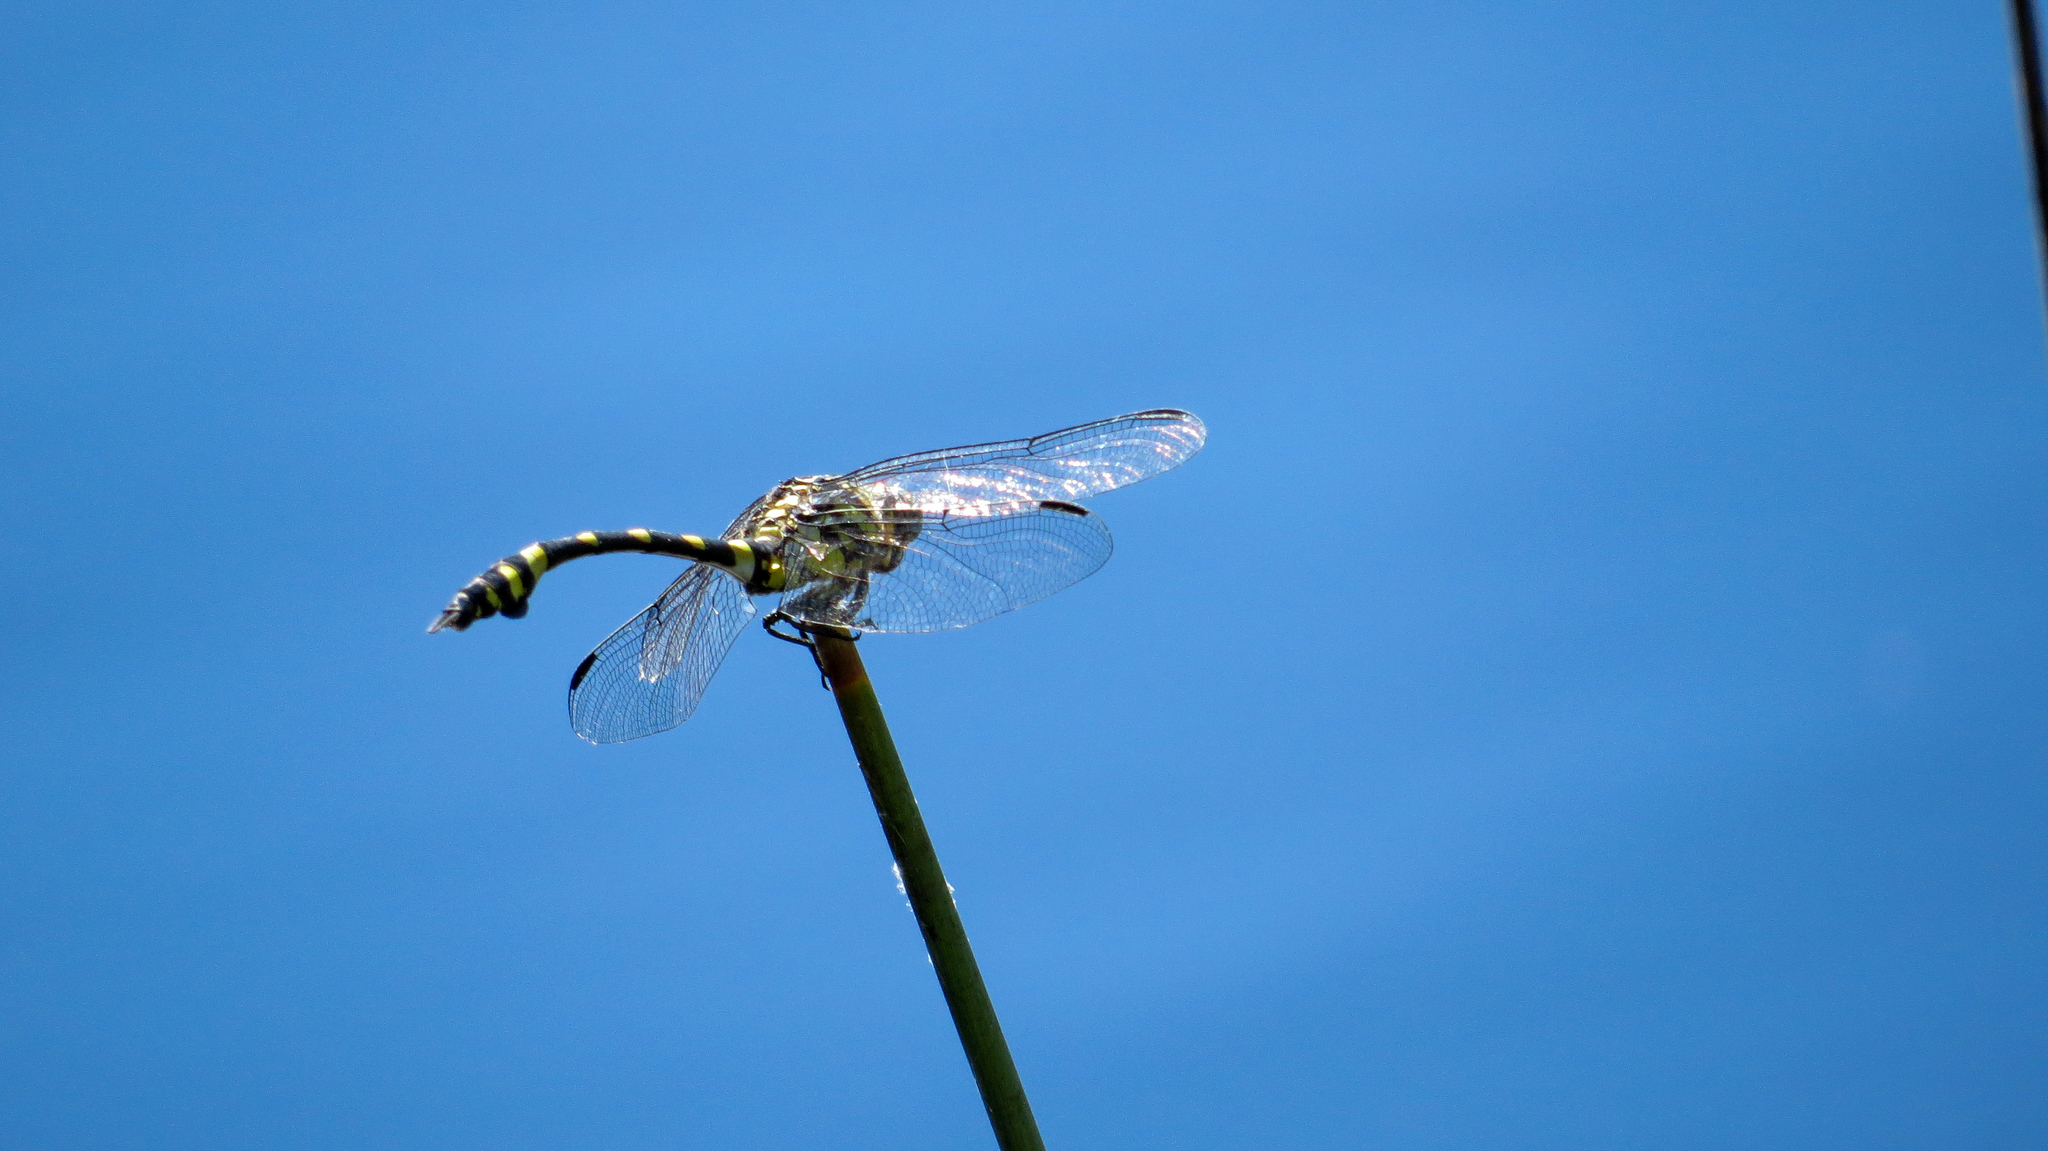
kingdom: Animalia
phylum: Arthropoda
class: Insecta
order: Odonata
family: Gomphidae
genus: Ictinogomphus
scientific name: Ictinogomphus australis
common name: Australian tiger
